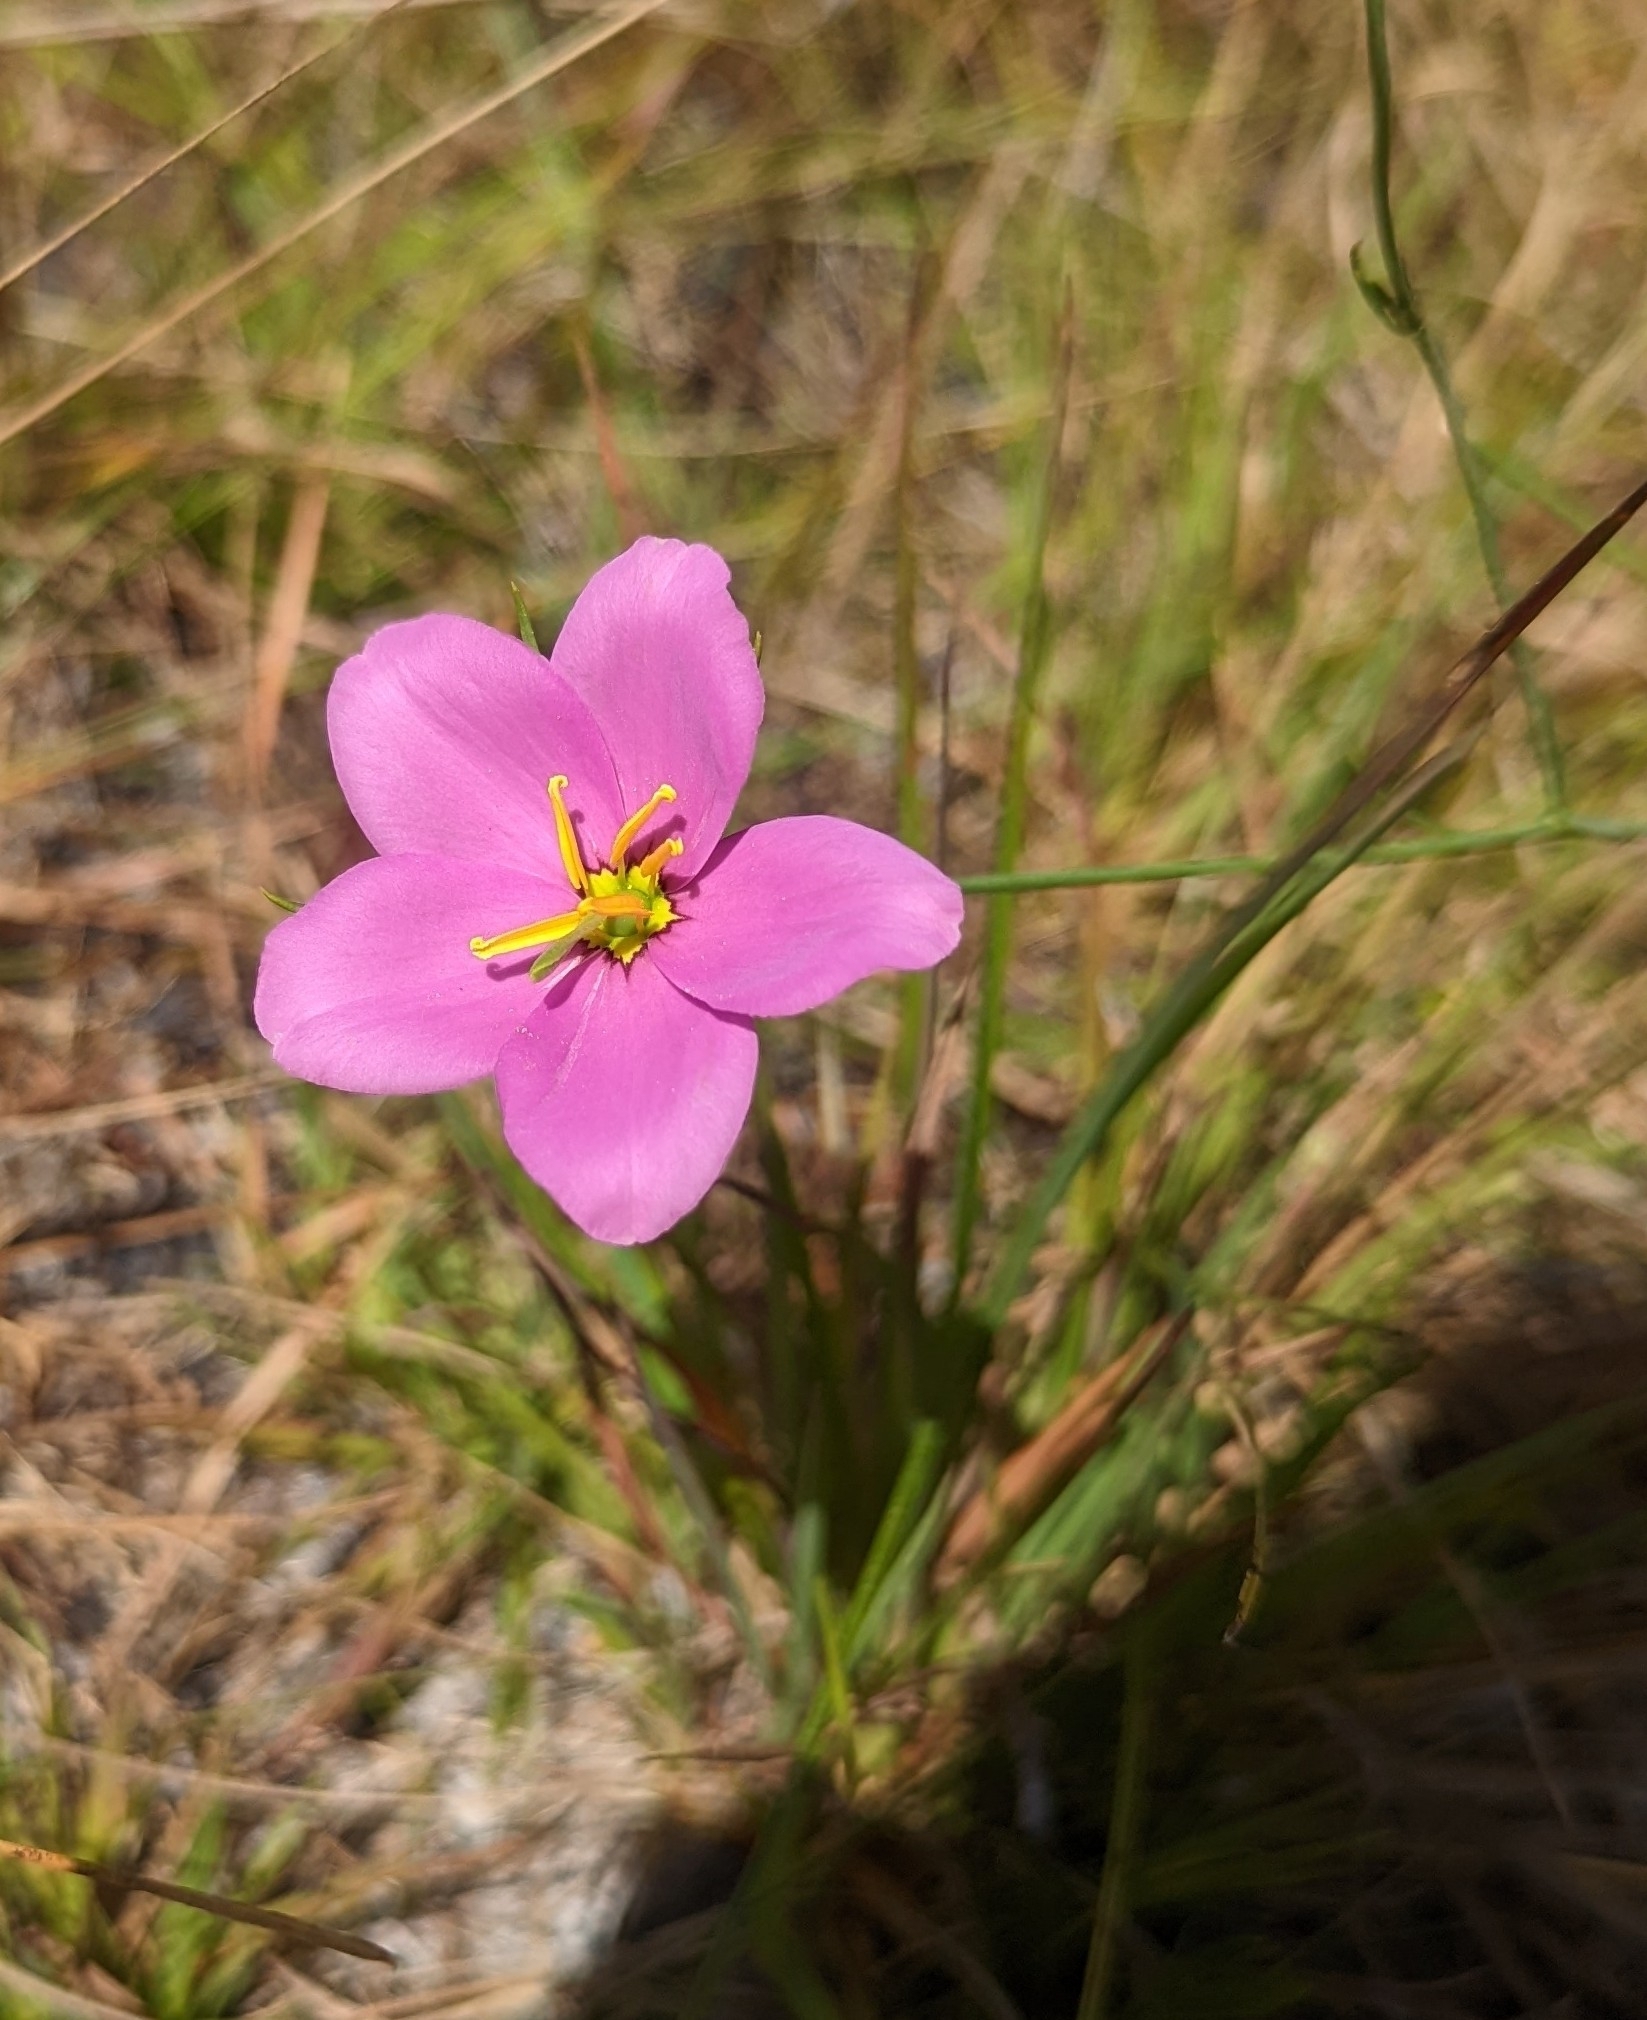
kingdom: Plantae
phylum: Tracheophyta
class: Magnoliopsida
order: Gentianales
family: Gentianaceae
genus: Sabatia
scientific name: Sabatia grandiflora
